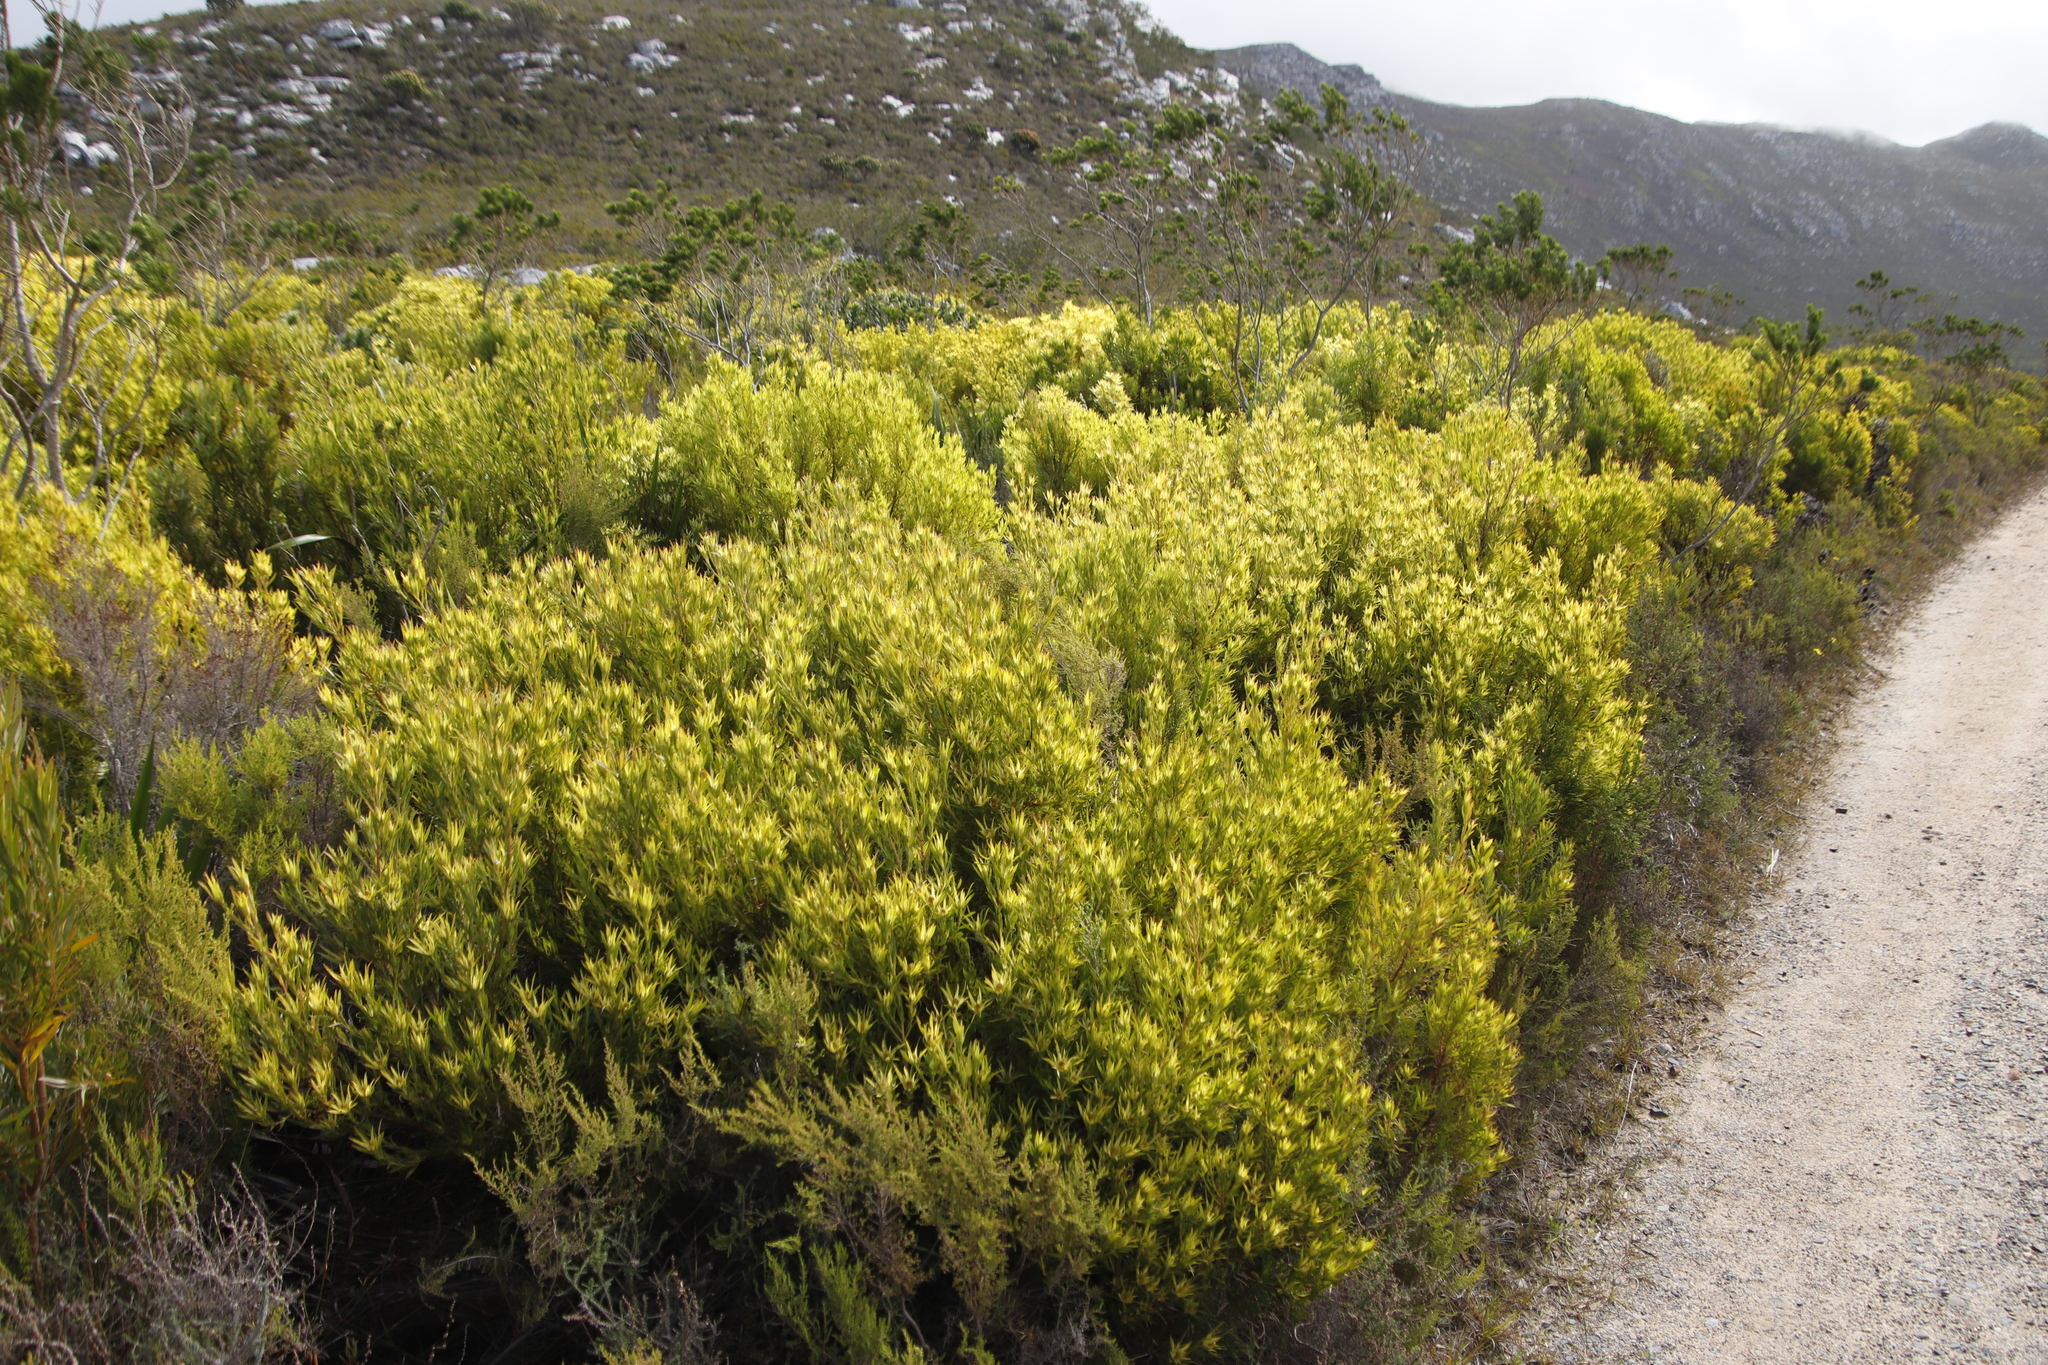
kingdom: Plantae
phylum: Tracheophyta
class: Magnoliopsida
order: Proteales
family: Proteaceae
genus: Leucadendron
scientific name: Leucadendron xanthoconus
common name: Sickle-leaf conebush
